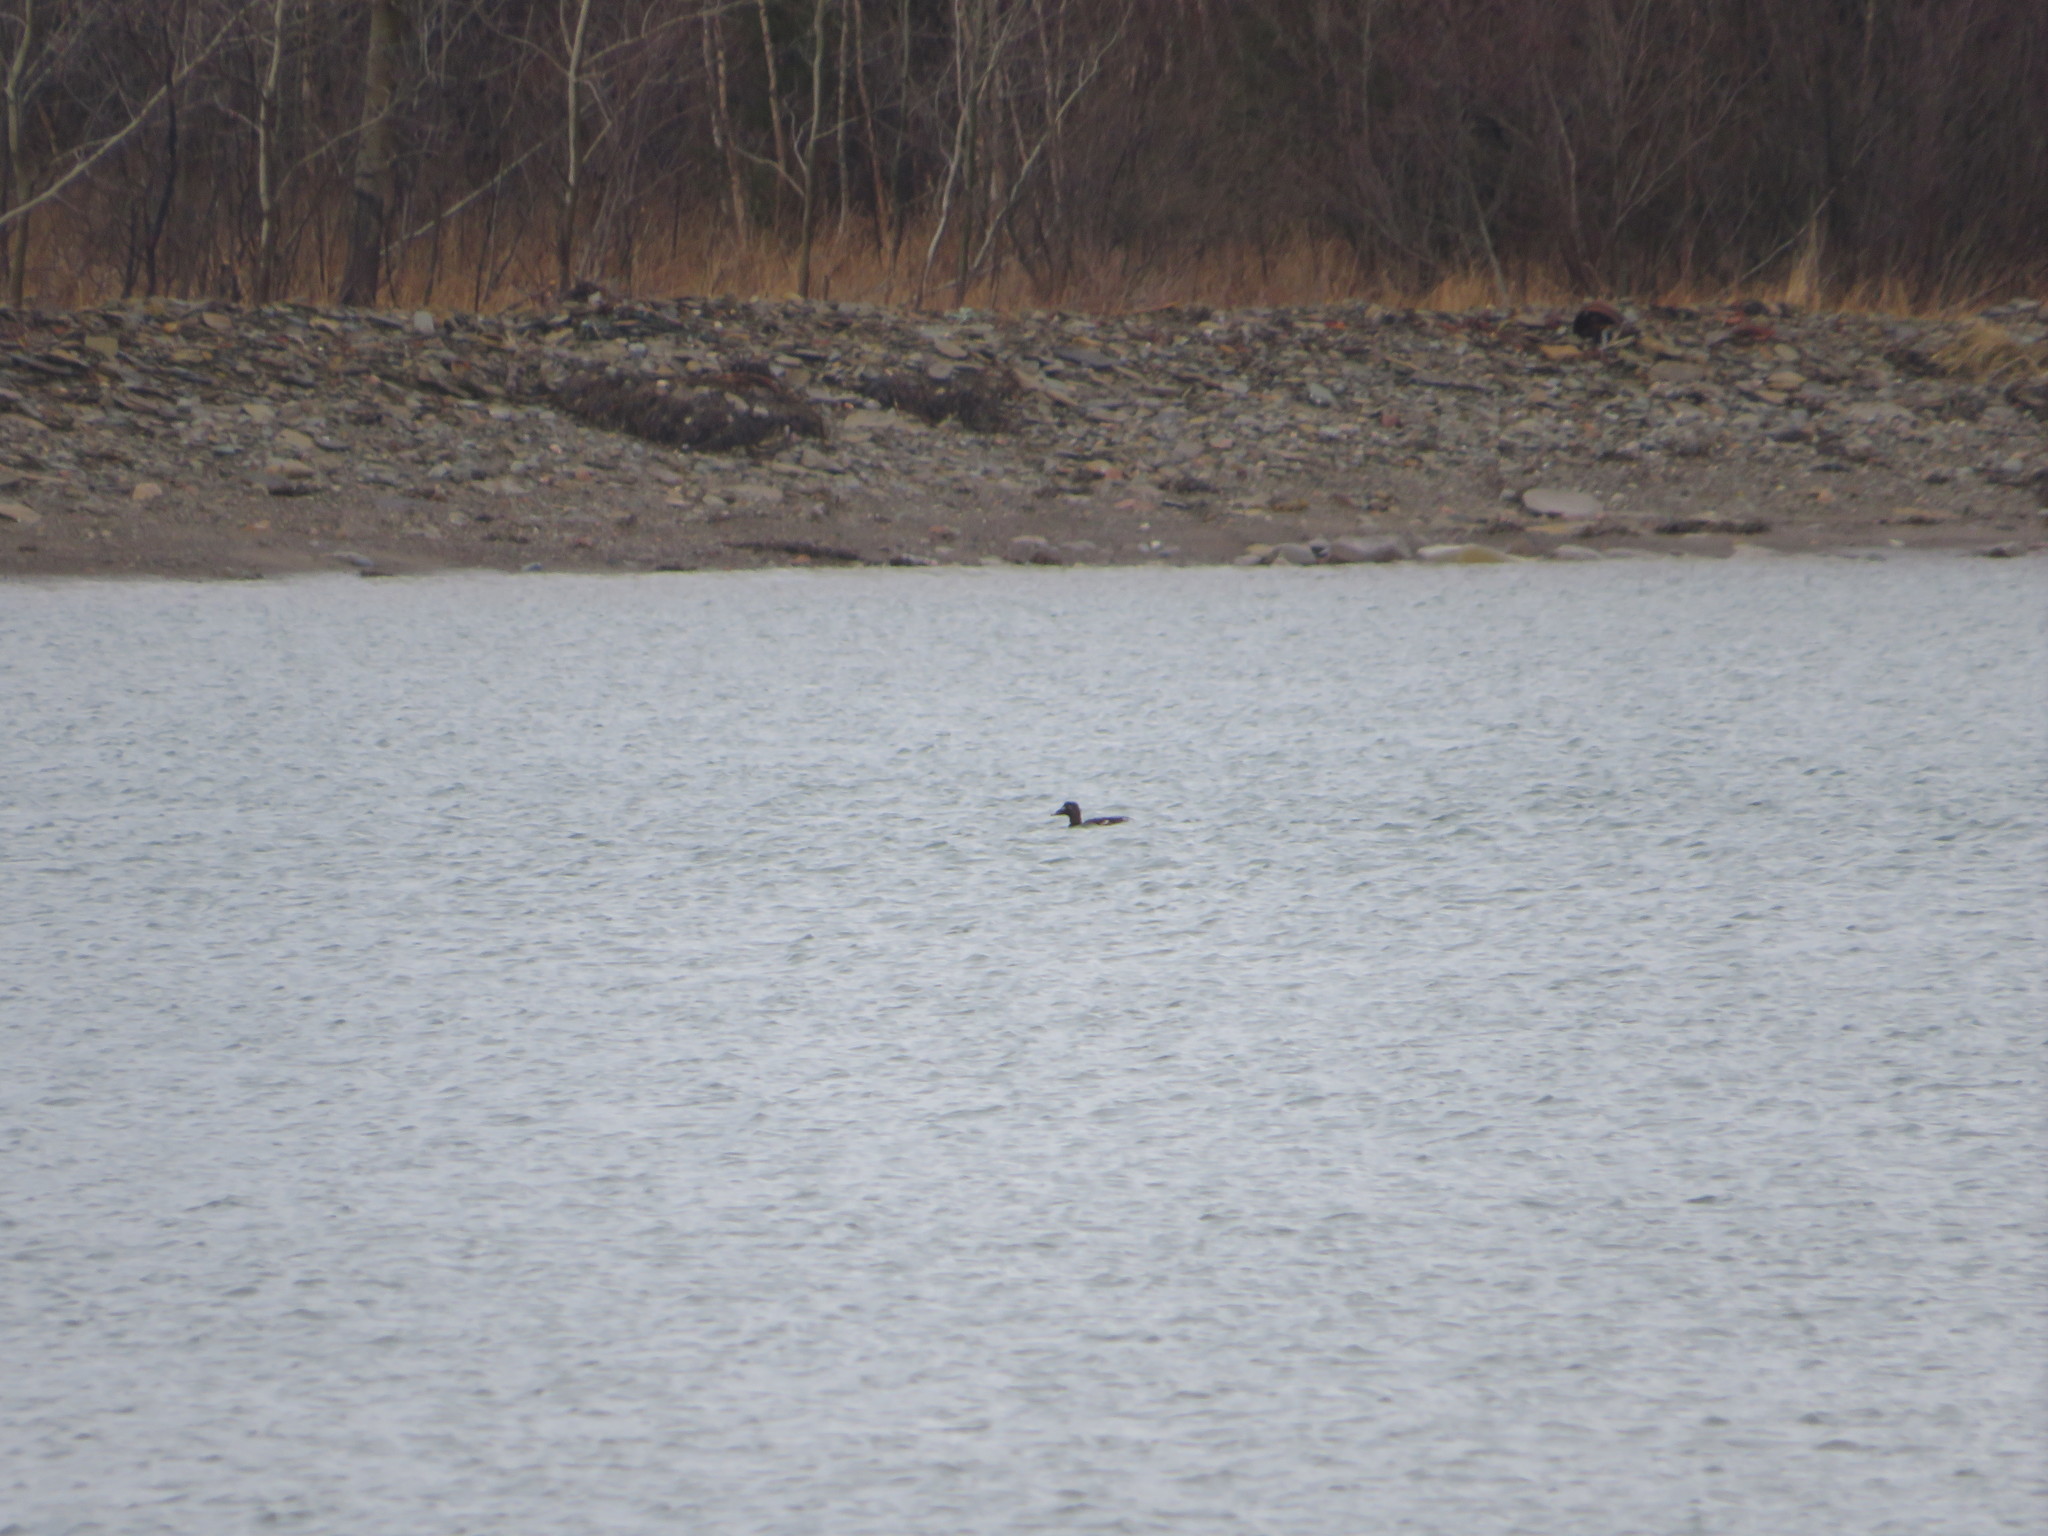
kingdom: Animalia
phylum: Chordata
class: Aves
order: Anseriformes
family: Anatidae
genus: Melanitta
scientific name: Melanitta deglandi
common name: White-winged scoter
